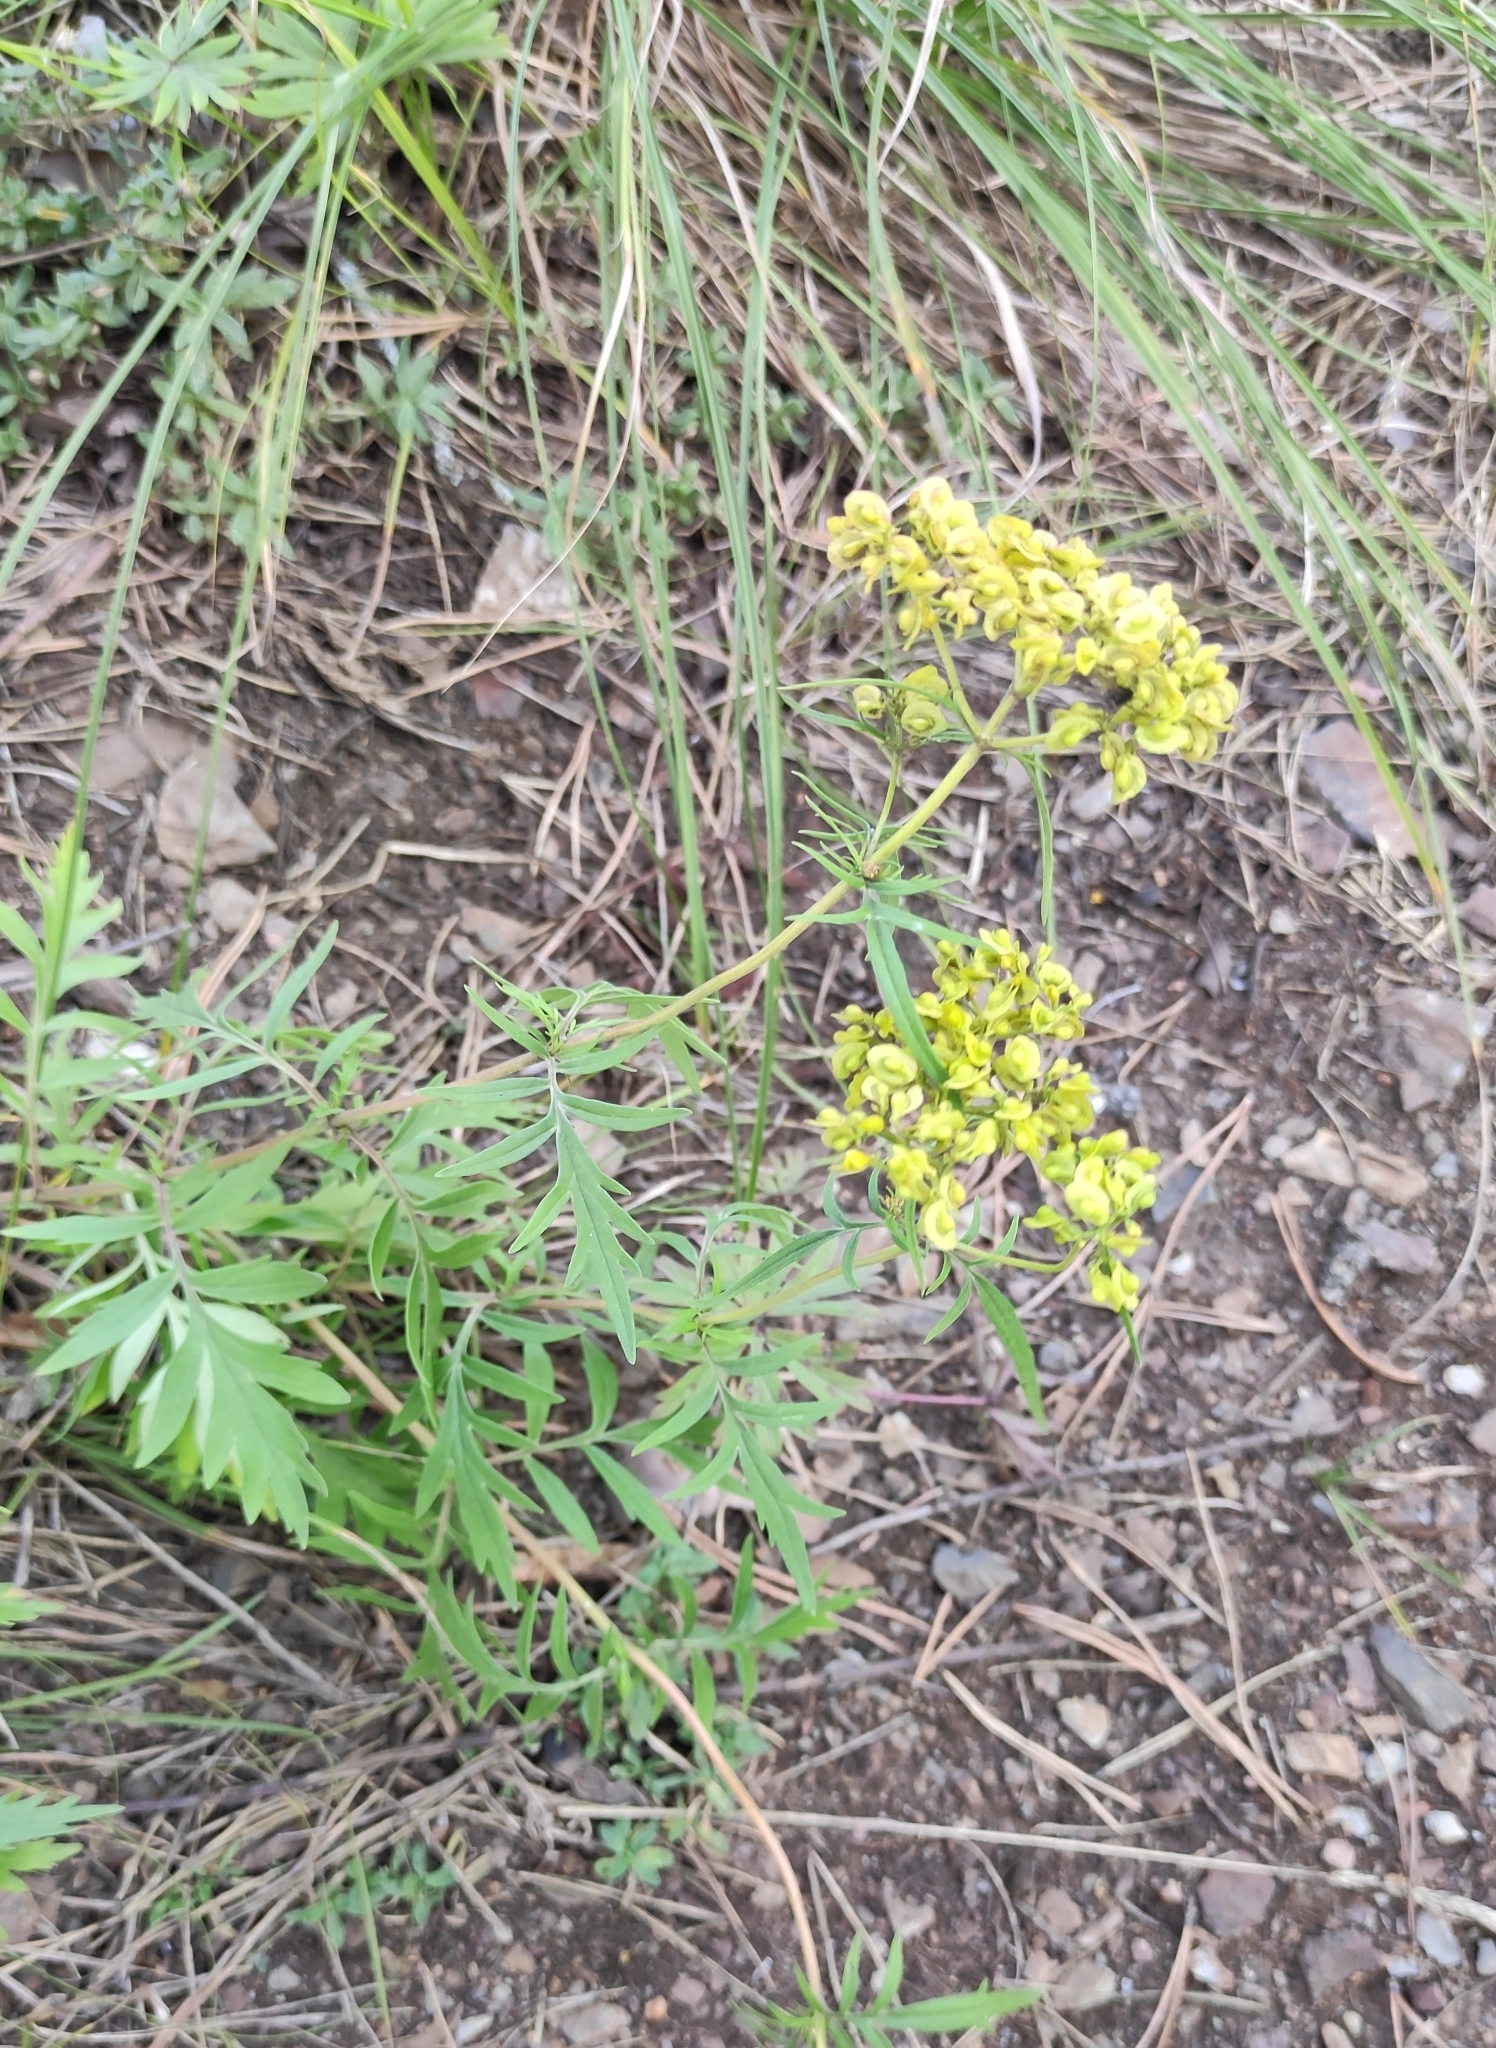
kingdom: Plantae
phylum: Tracheophyta
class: Magnoliopsida
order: Dipsacales
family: Caprifoliaceae
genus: Patrinia
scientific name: Patrinia rupestris
